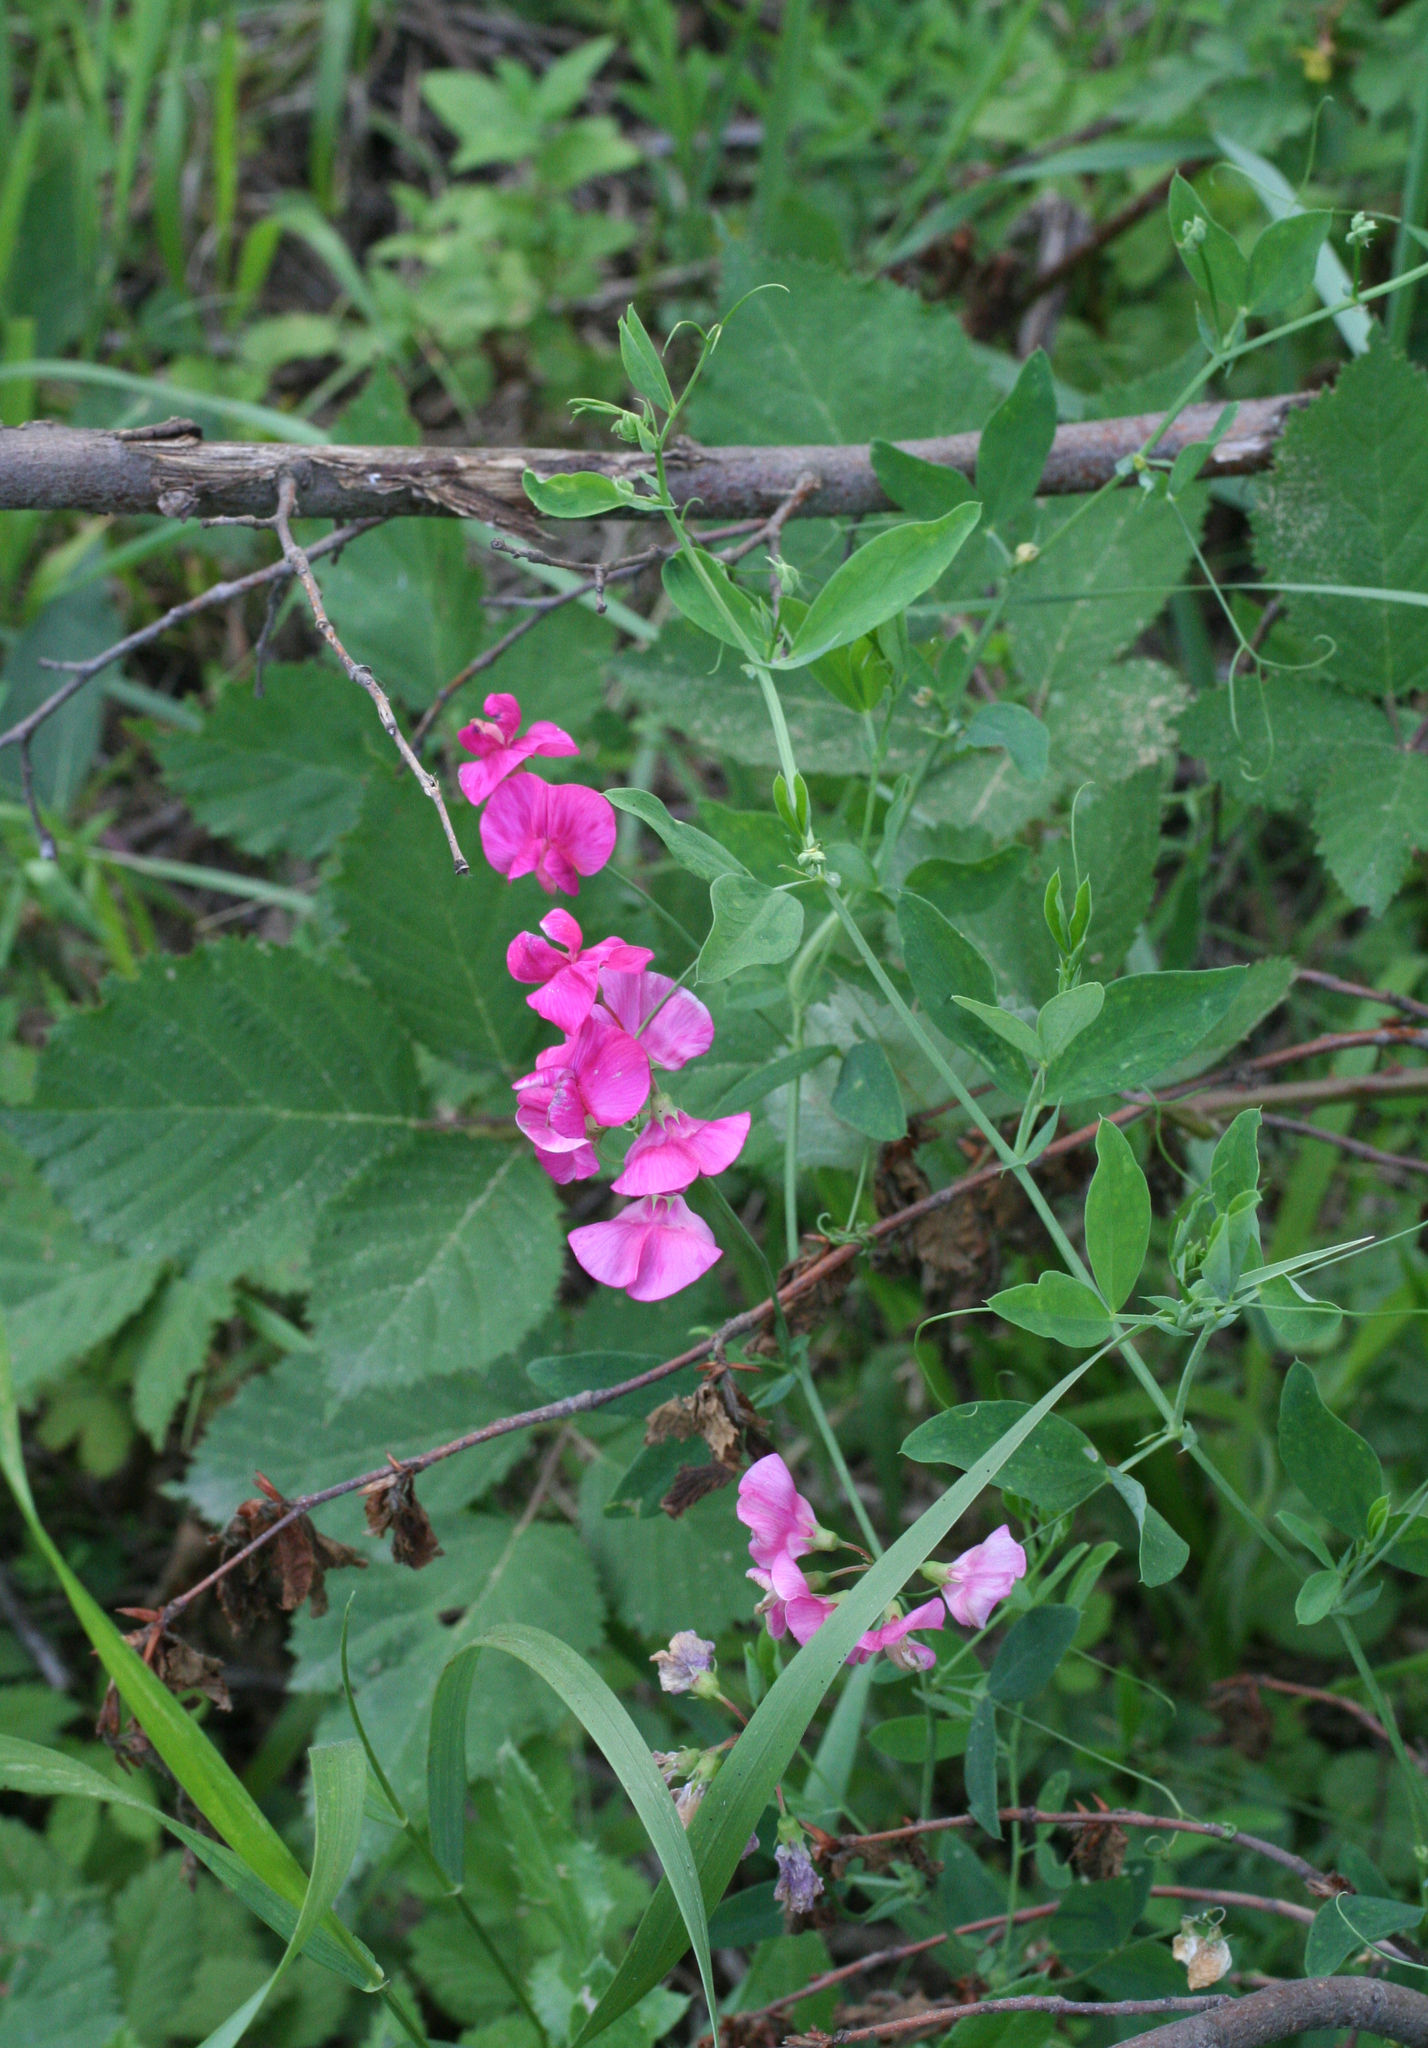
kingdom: Plantae
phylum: Tracheophyta
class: Magnoliopsida
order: Fabales
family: Fabaceae
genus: Lathyrus
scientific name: Lathyrus tuberosus
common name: Tuberous pea
